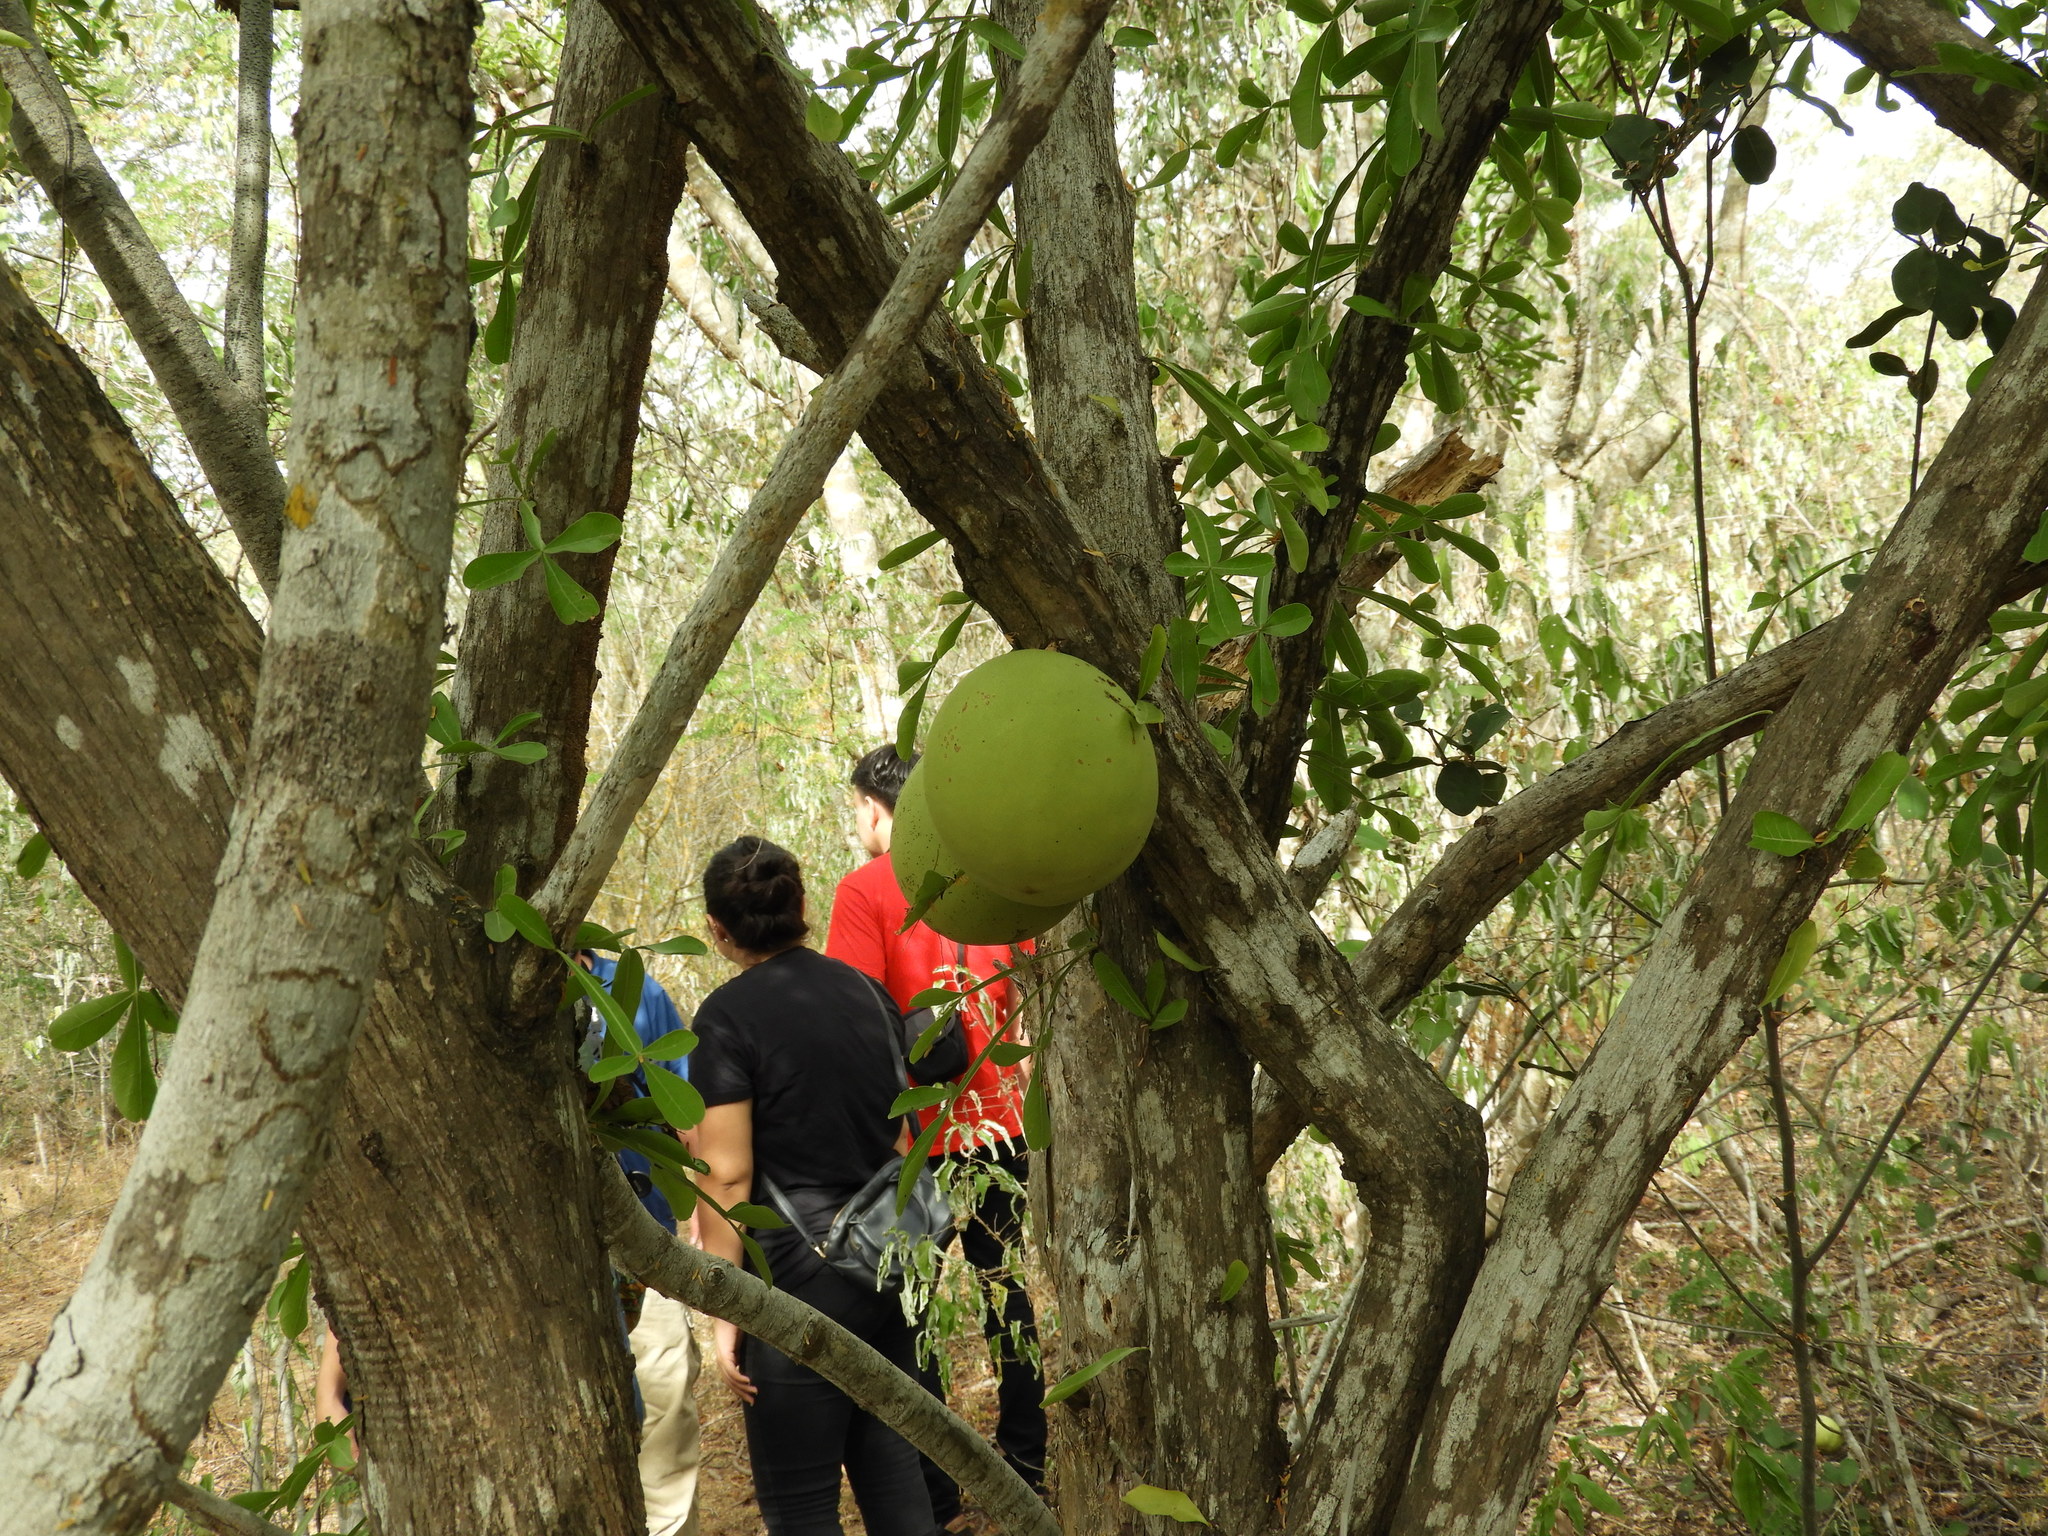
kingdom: Plantae
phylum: Tracheophyta
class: Magnoliopsida
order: Lamiales
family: Bignoniaceae
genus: Crescentia
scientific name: Crescentia alata
